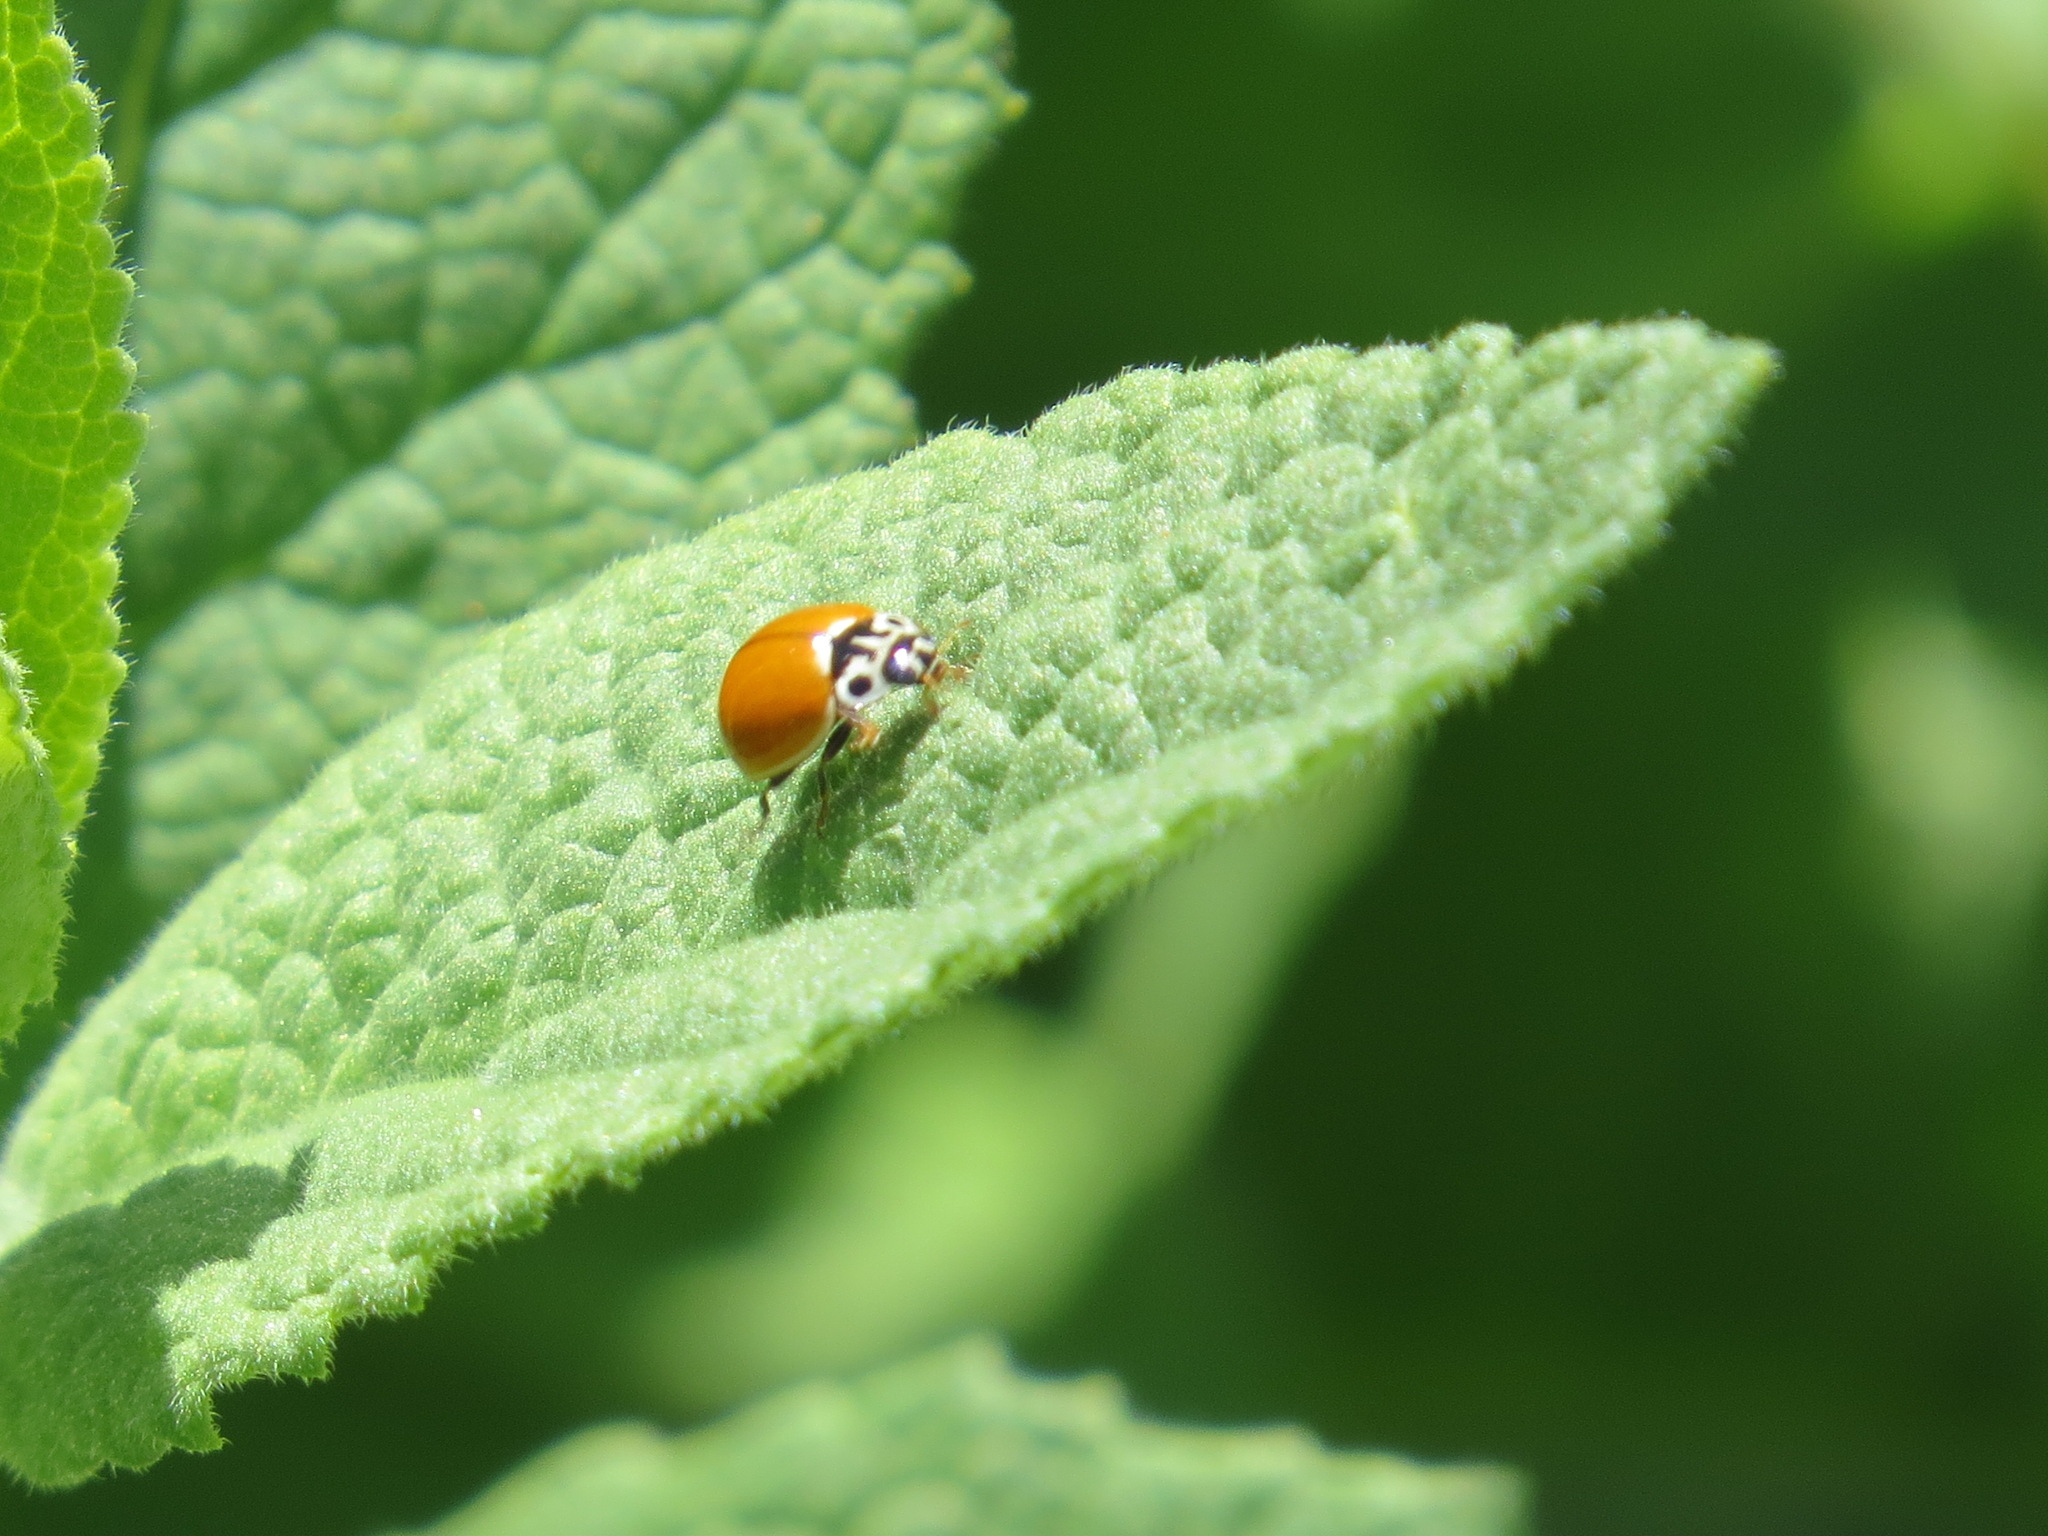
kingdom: Animalia
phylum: Arthropoda
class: Insecta
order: Coleoptera
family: Coccinellidae
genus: Cycloneda
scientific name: Cycloneda polita
